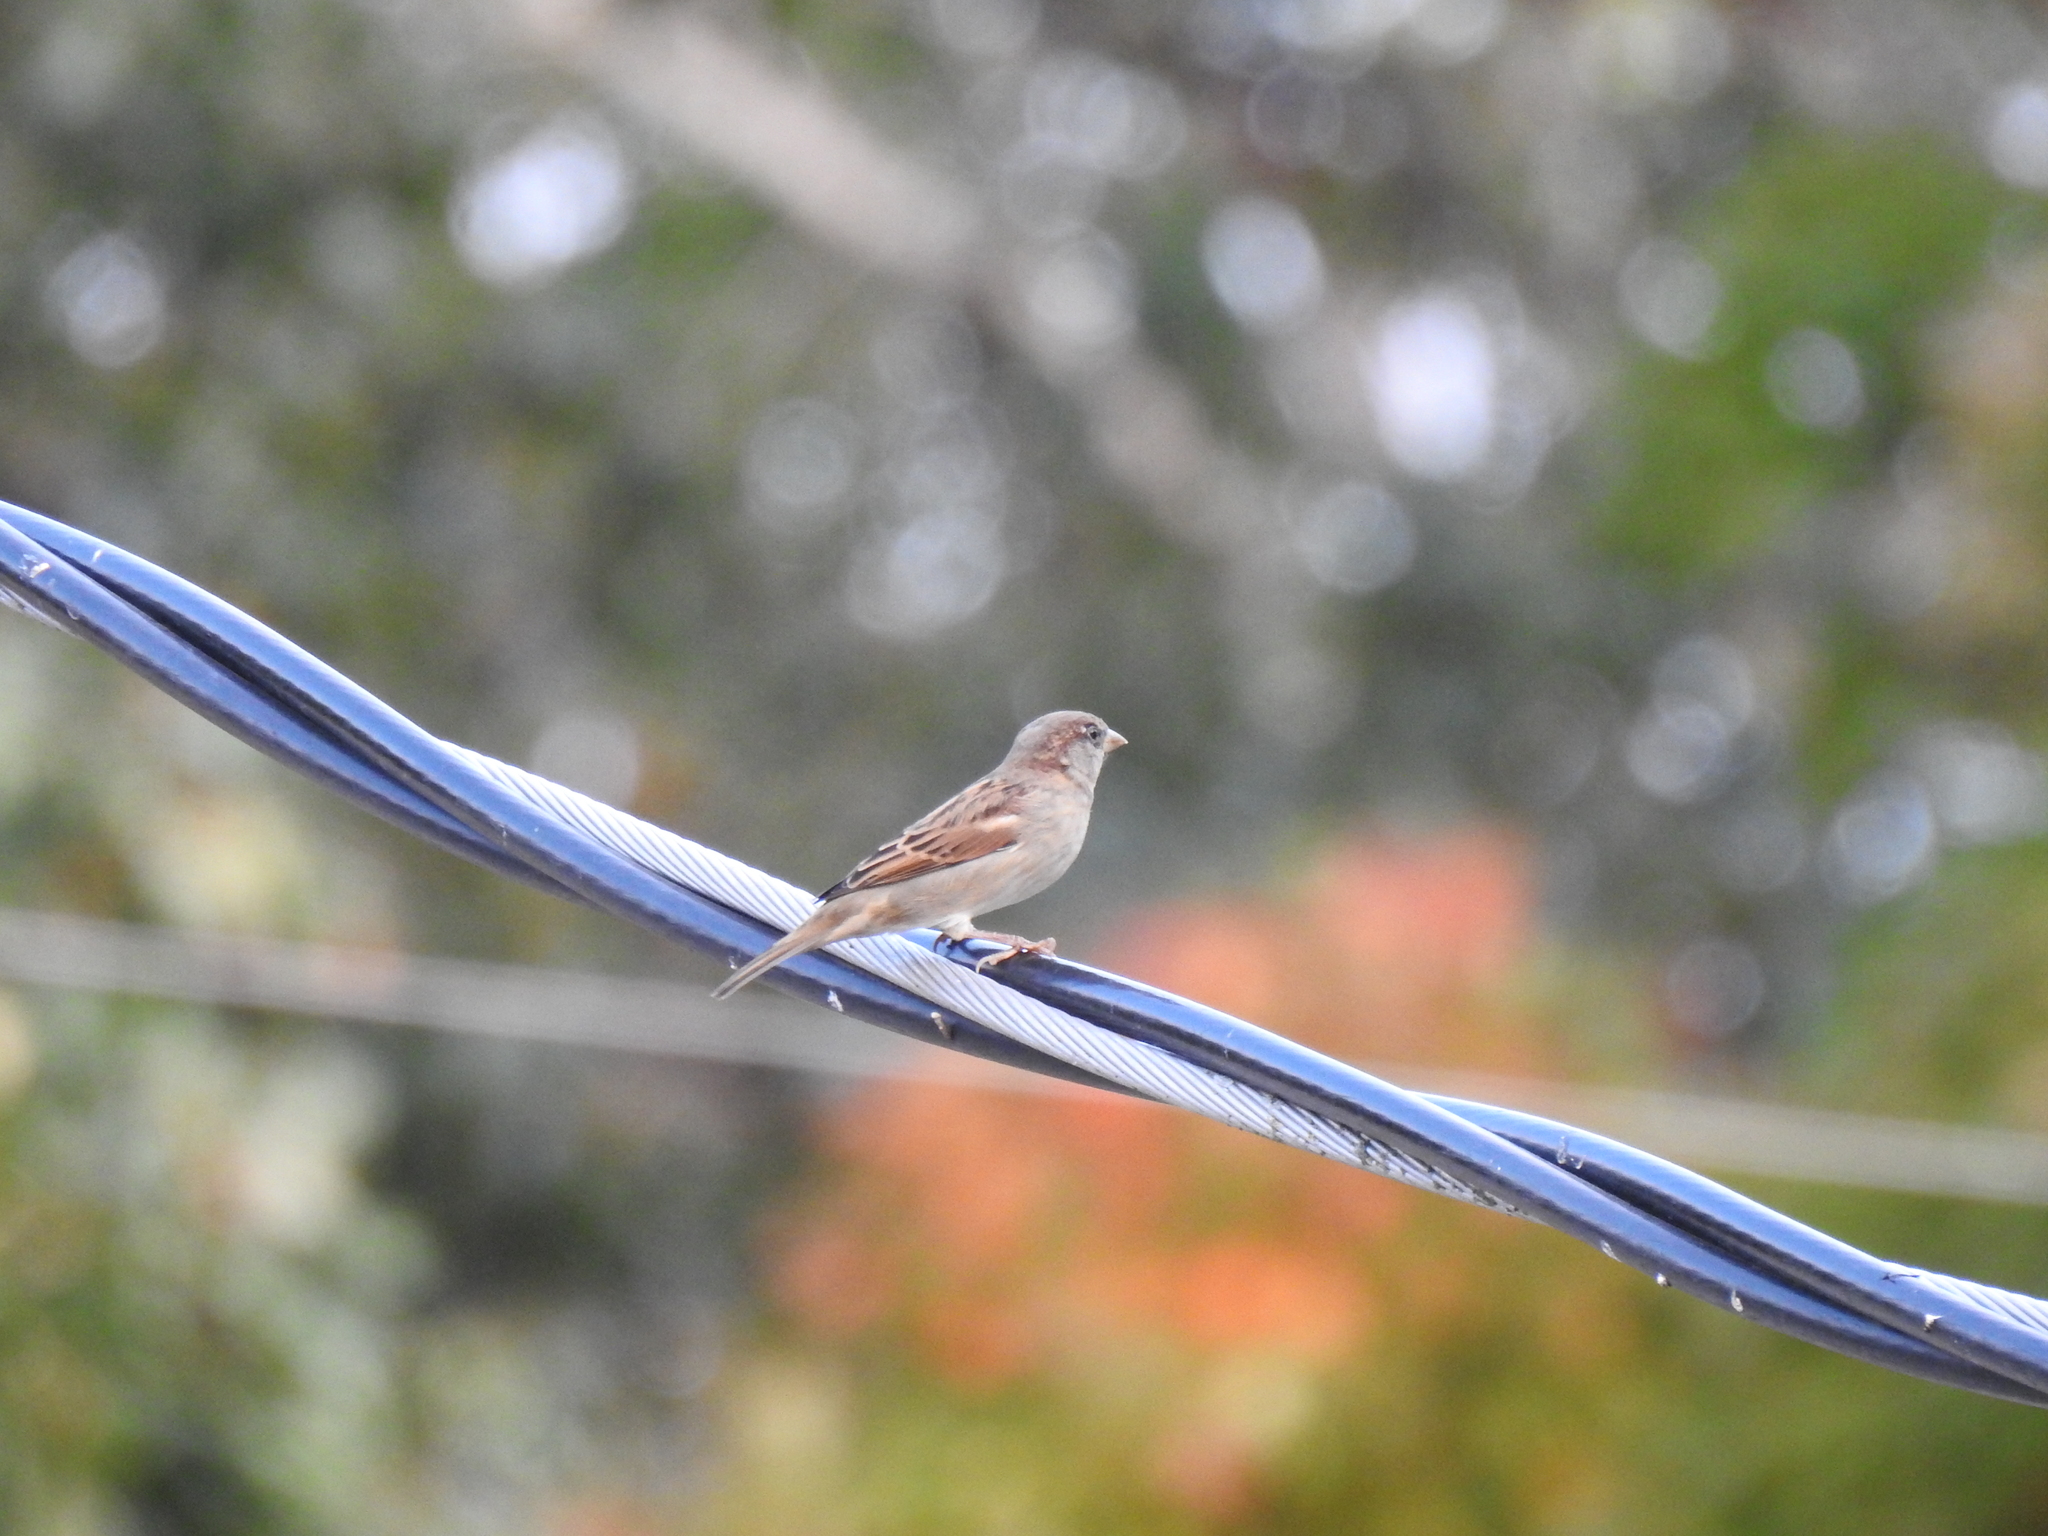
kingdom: Animalia
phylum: Chordata
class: Aves
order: Passeriformes
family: Passeridae
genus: Passer
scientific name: Passer domesticus
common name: House sparrow
